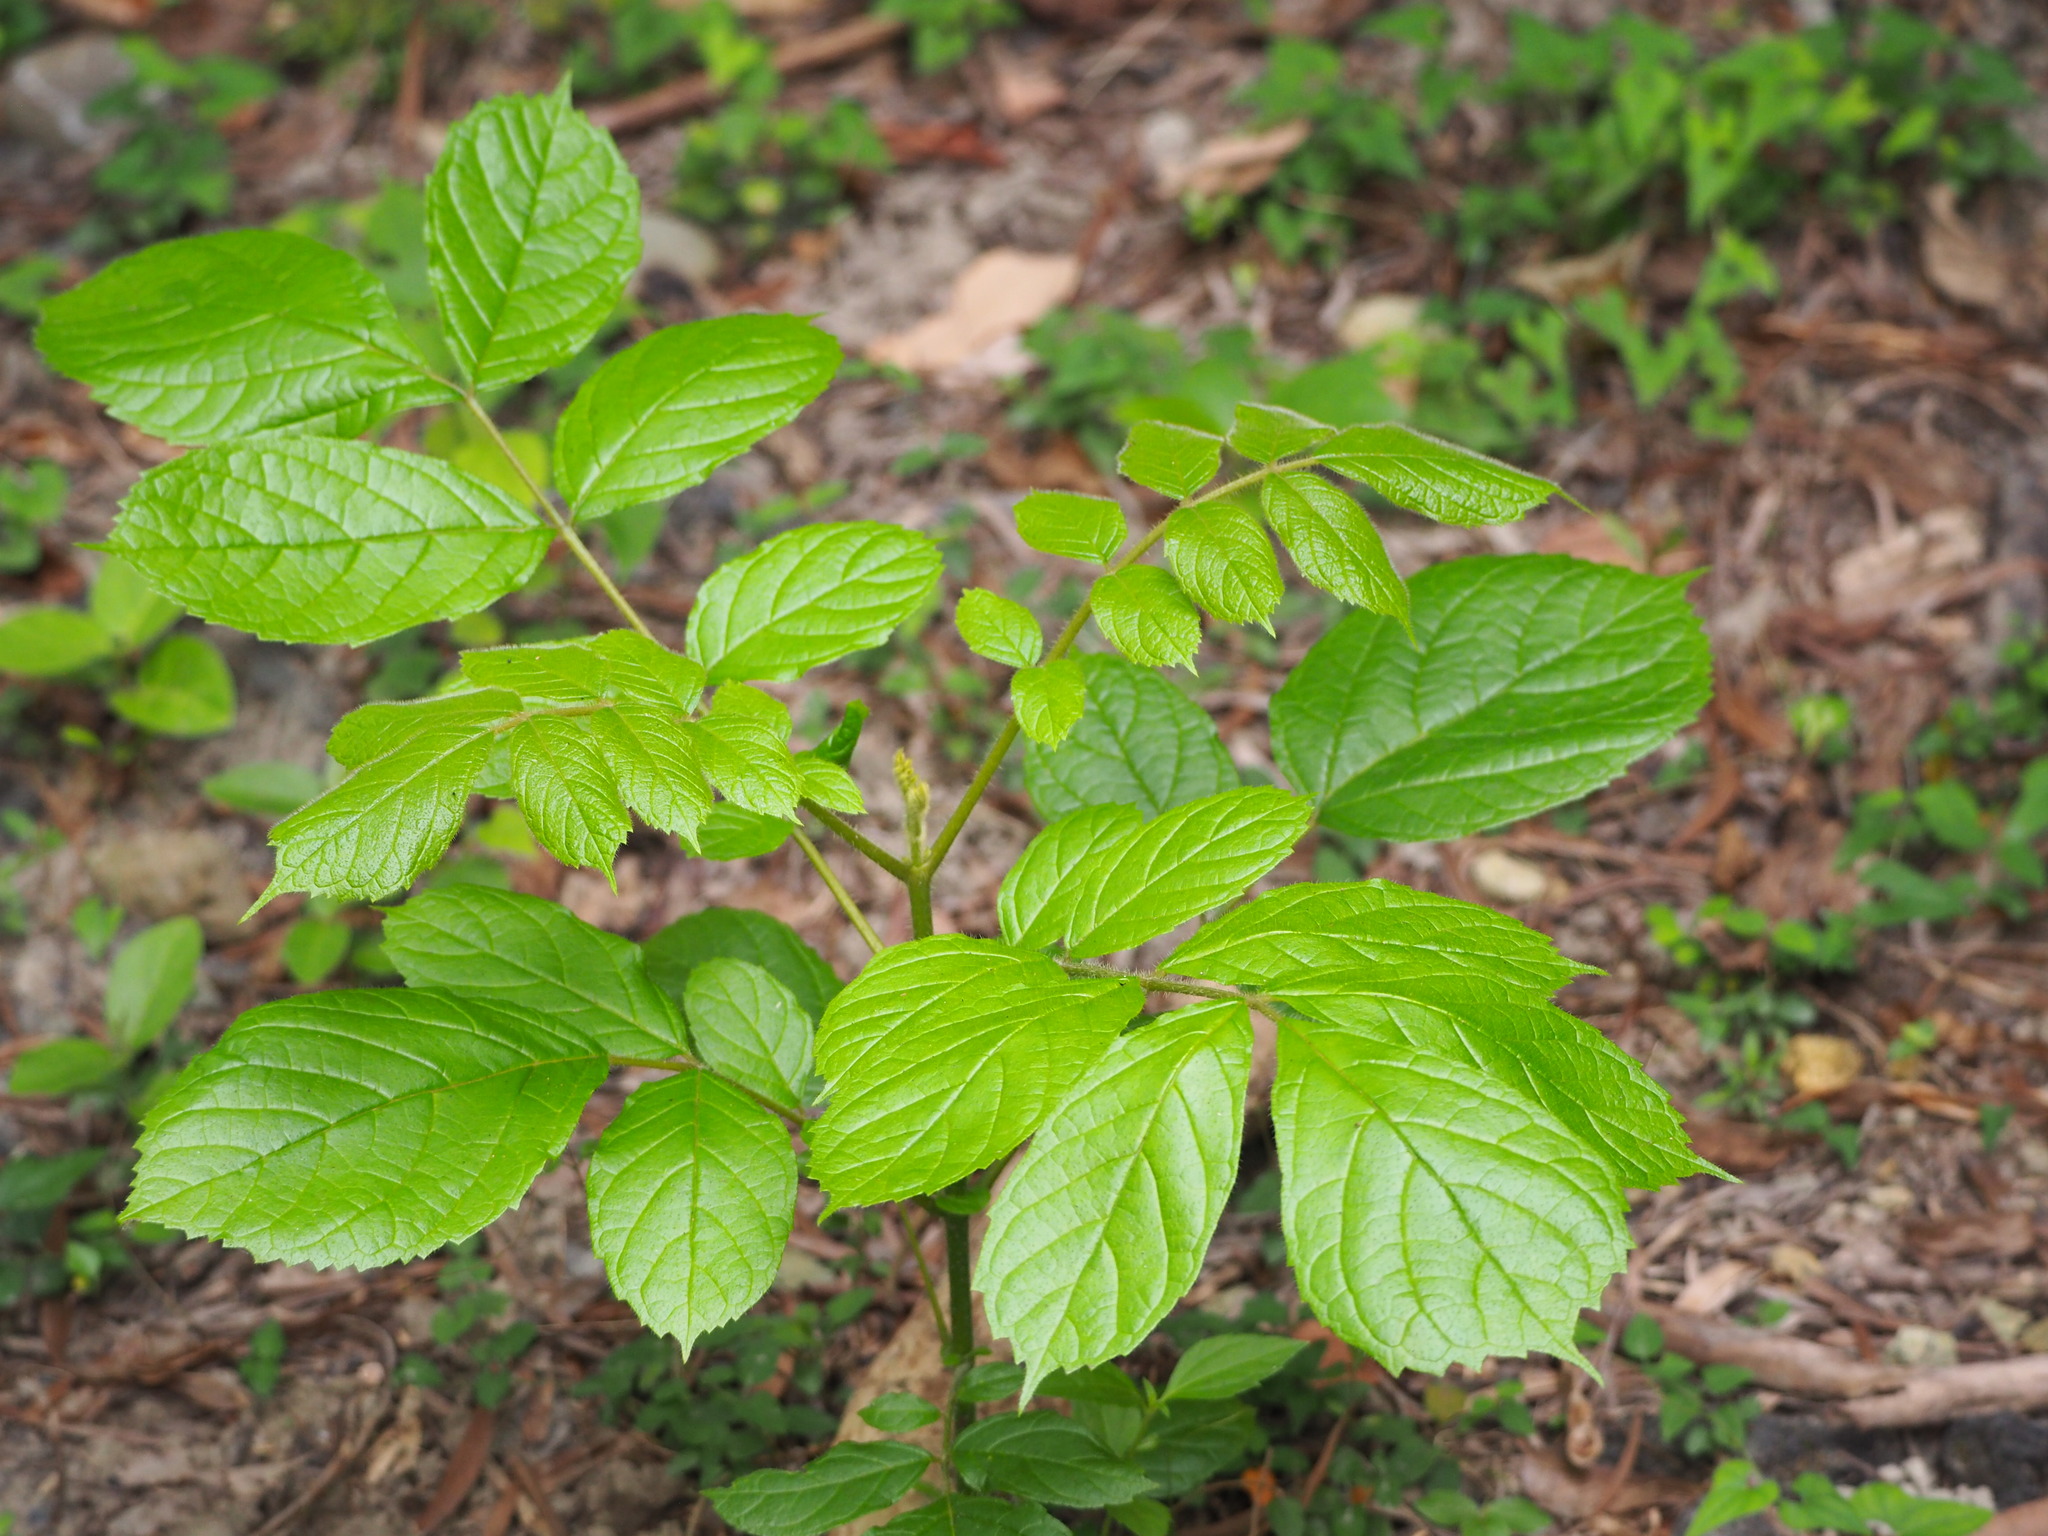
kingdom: Plantae
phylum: Tracheophyta
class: Magnoliopsida
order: Lamiales
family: Bignoniaceae
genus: Spathodea
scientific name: Spathodea campanulata
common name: African tuliptree
